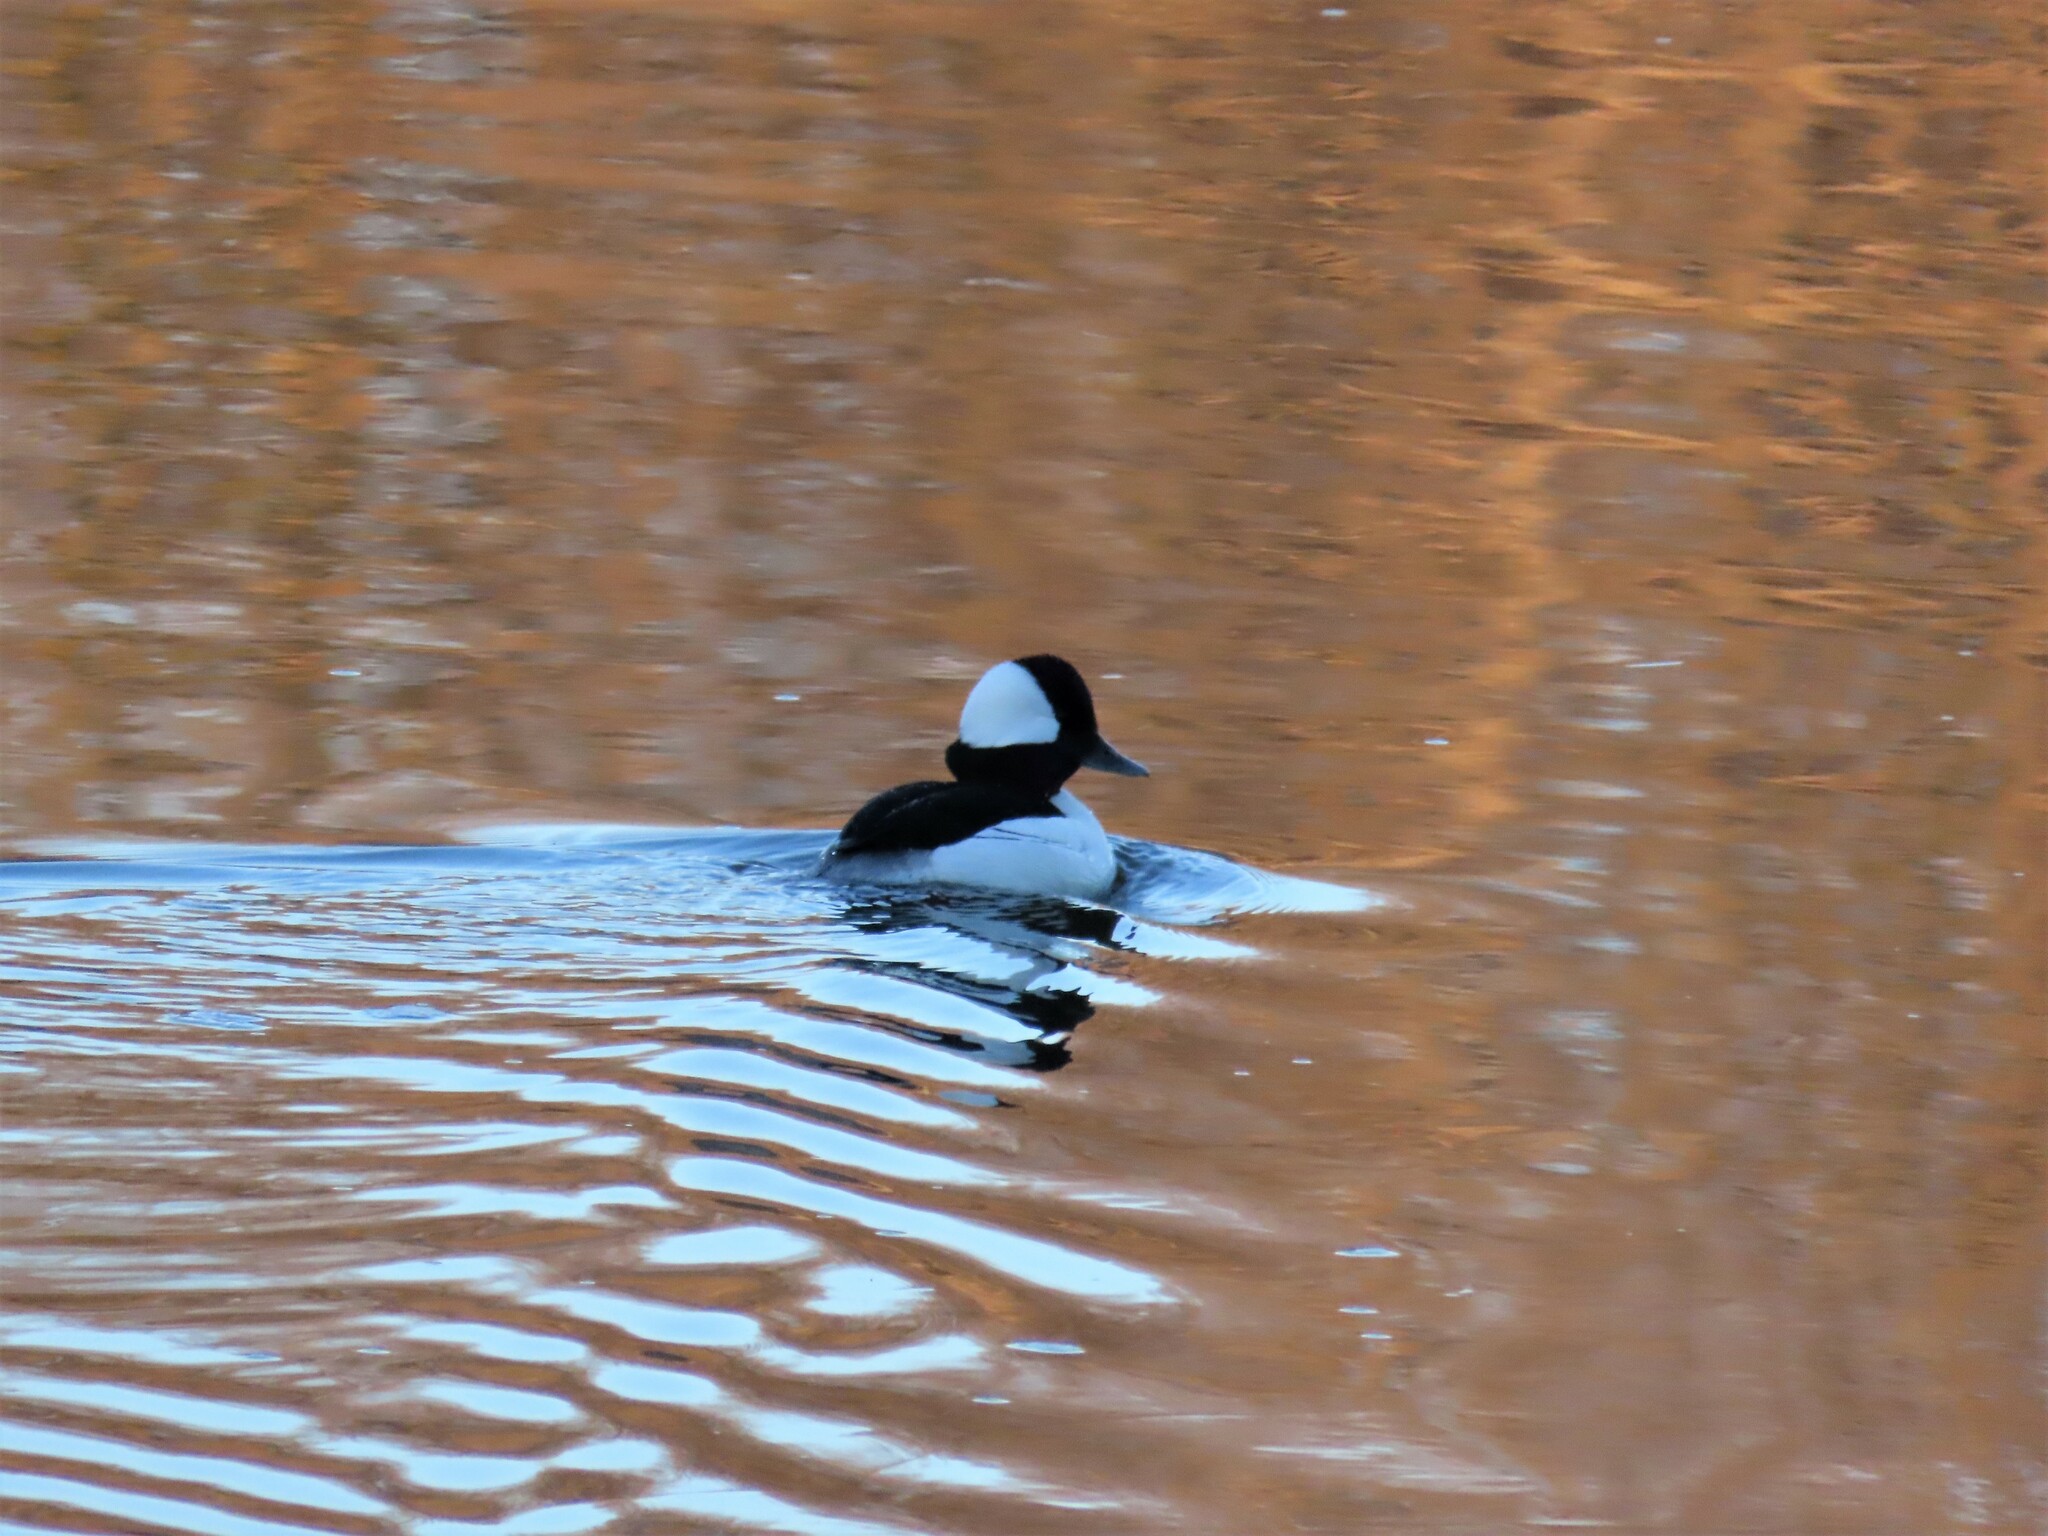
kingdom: Animalia
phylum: Chordata
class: Aves
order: Anseriformes
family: Anatidae
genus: Bucephala
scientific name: Bucephala albeola
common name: Bufflehead
